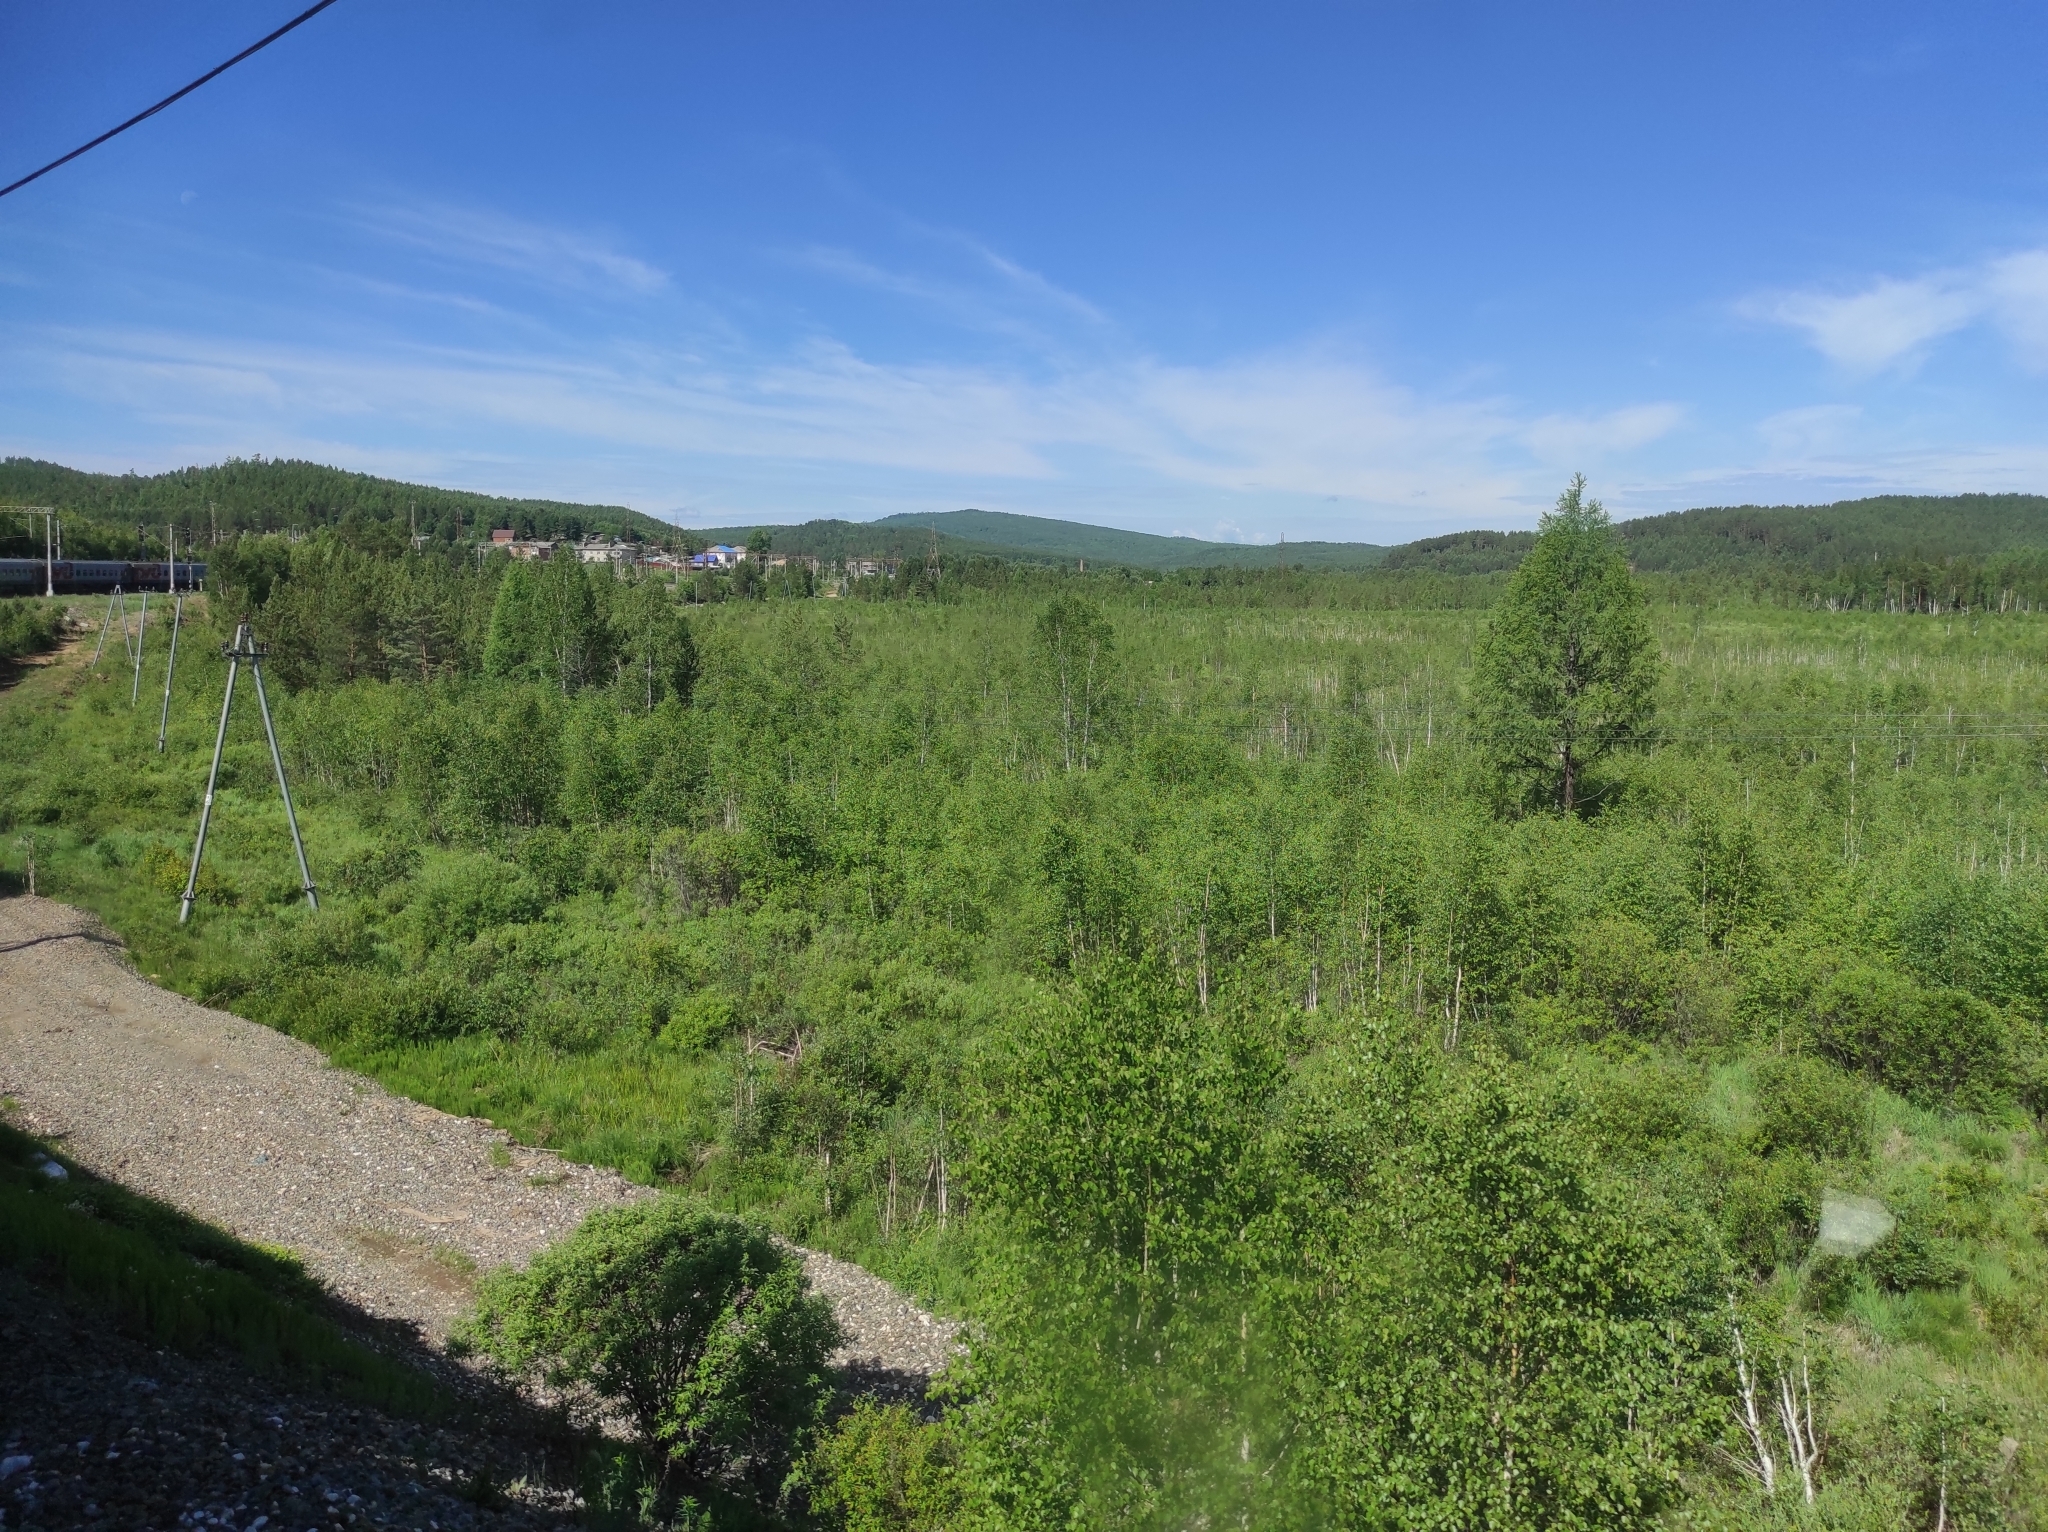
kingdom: Plantae
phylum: Tracheophyta
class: Pinopsida
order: Pinales
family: Pinaceae
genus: Larix
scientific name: Larix sibirica
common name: Siberian larch
